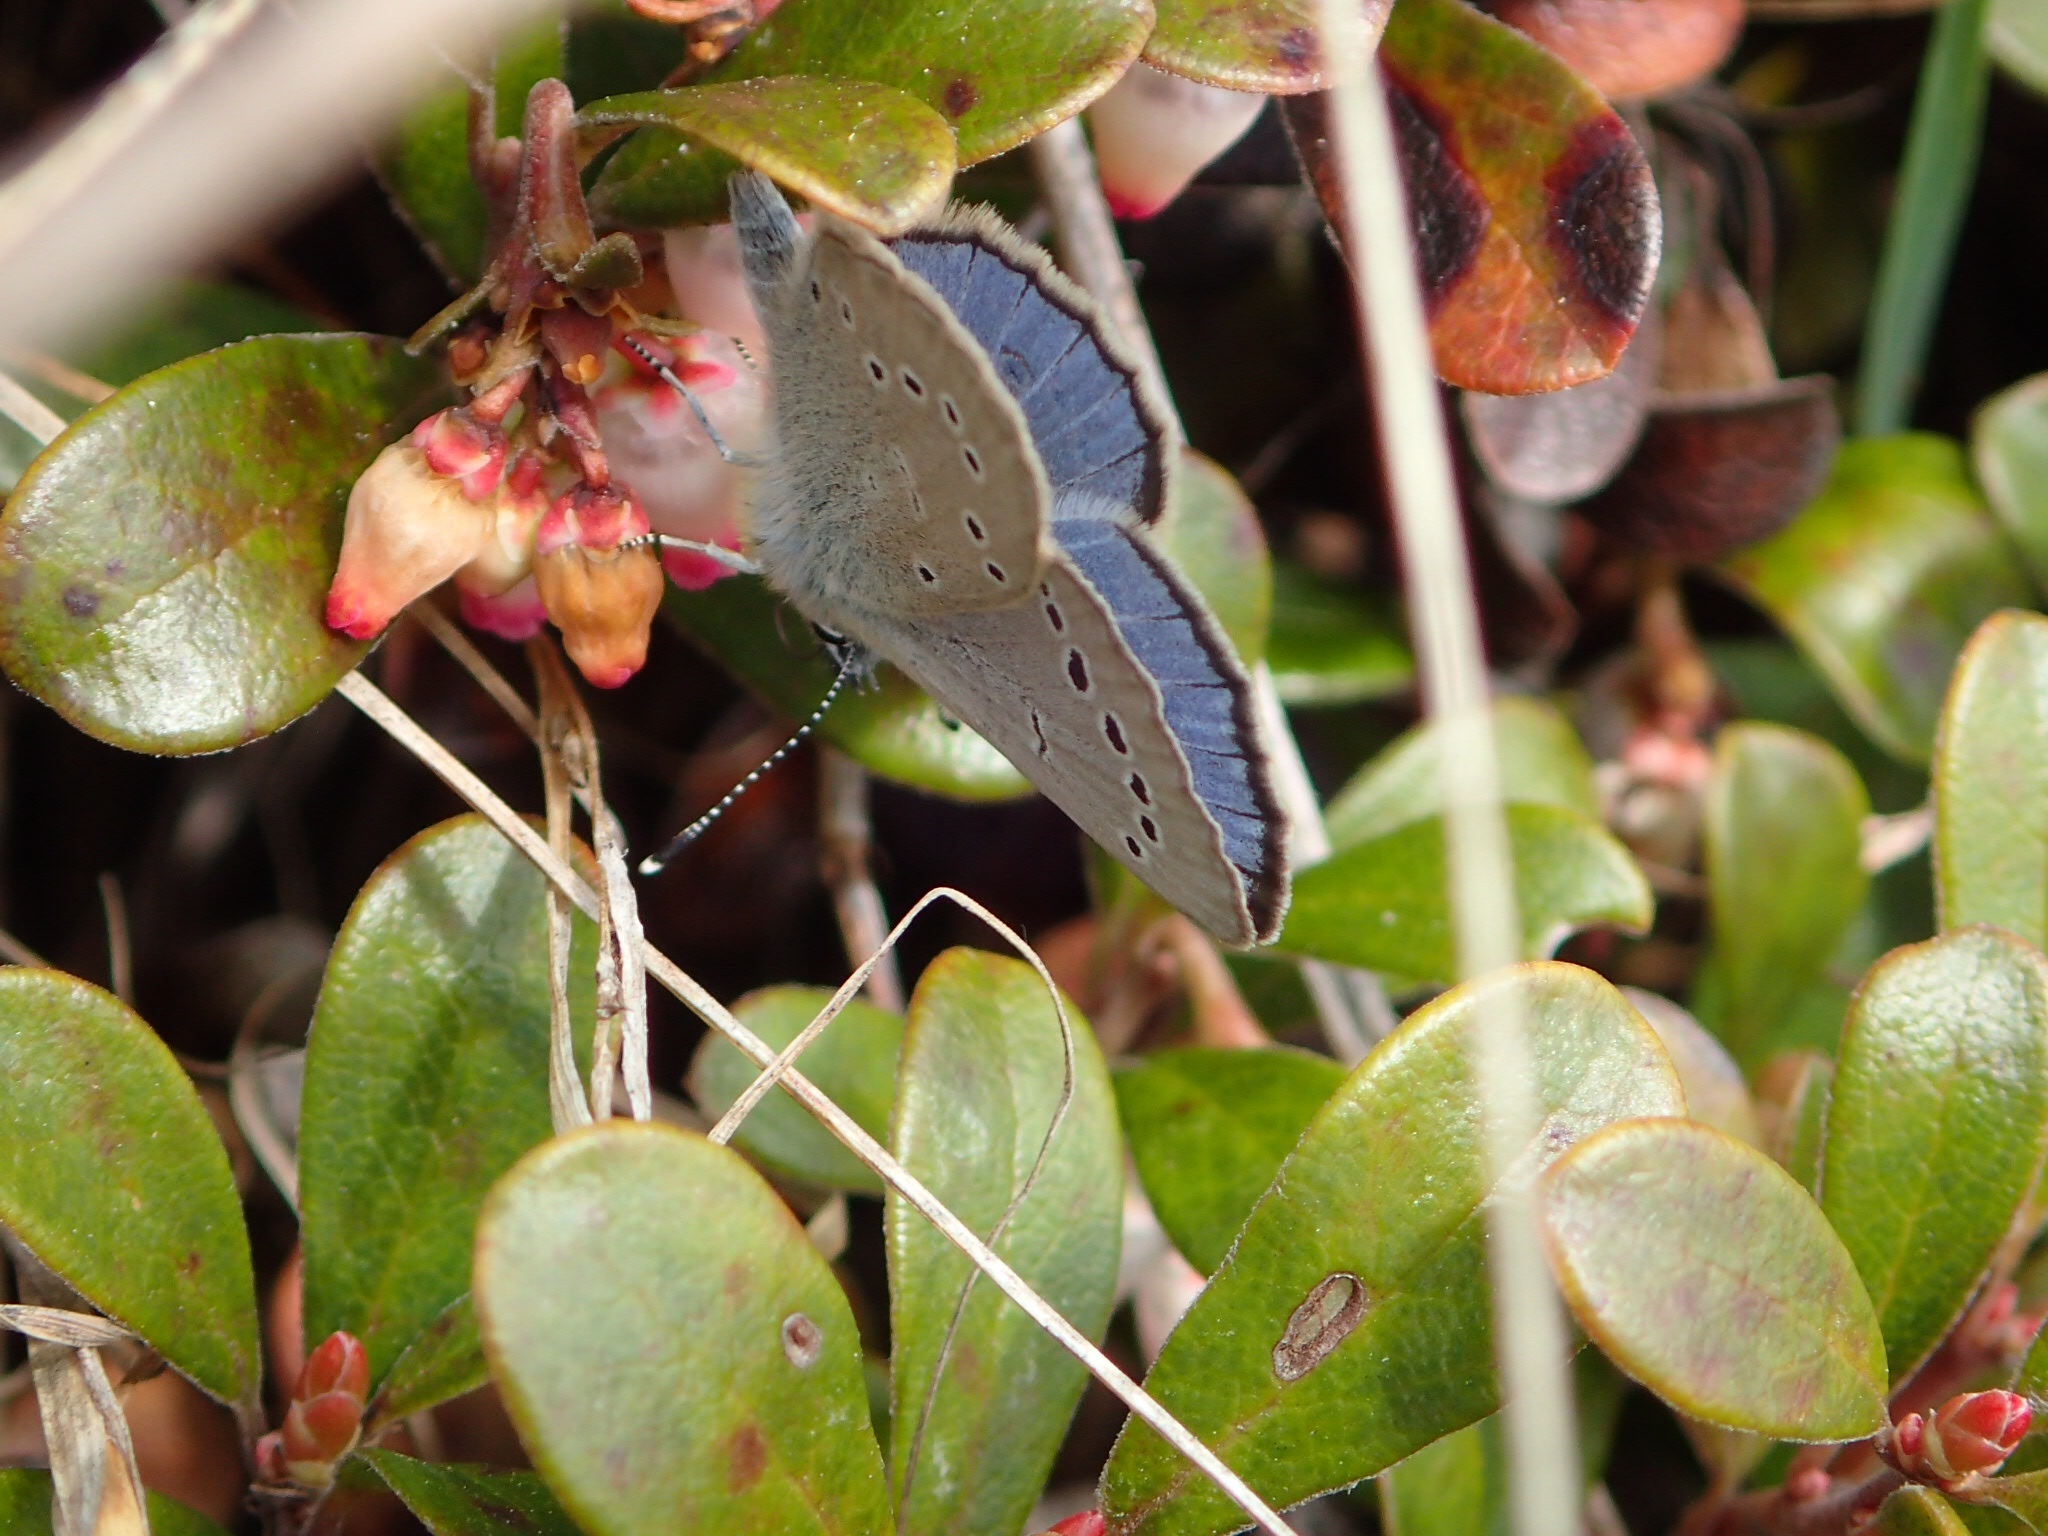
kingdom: Animalia
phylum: Arthropoda
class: Insecta
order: Lepidoptera
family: Lycaenidae
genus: Glaucopsyche
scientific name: Glaucopsyche lygdamus
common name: Silvery blue
